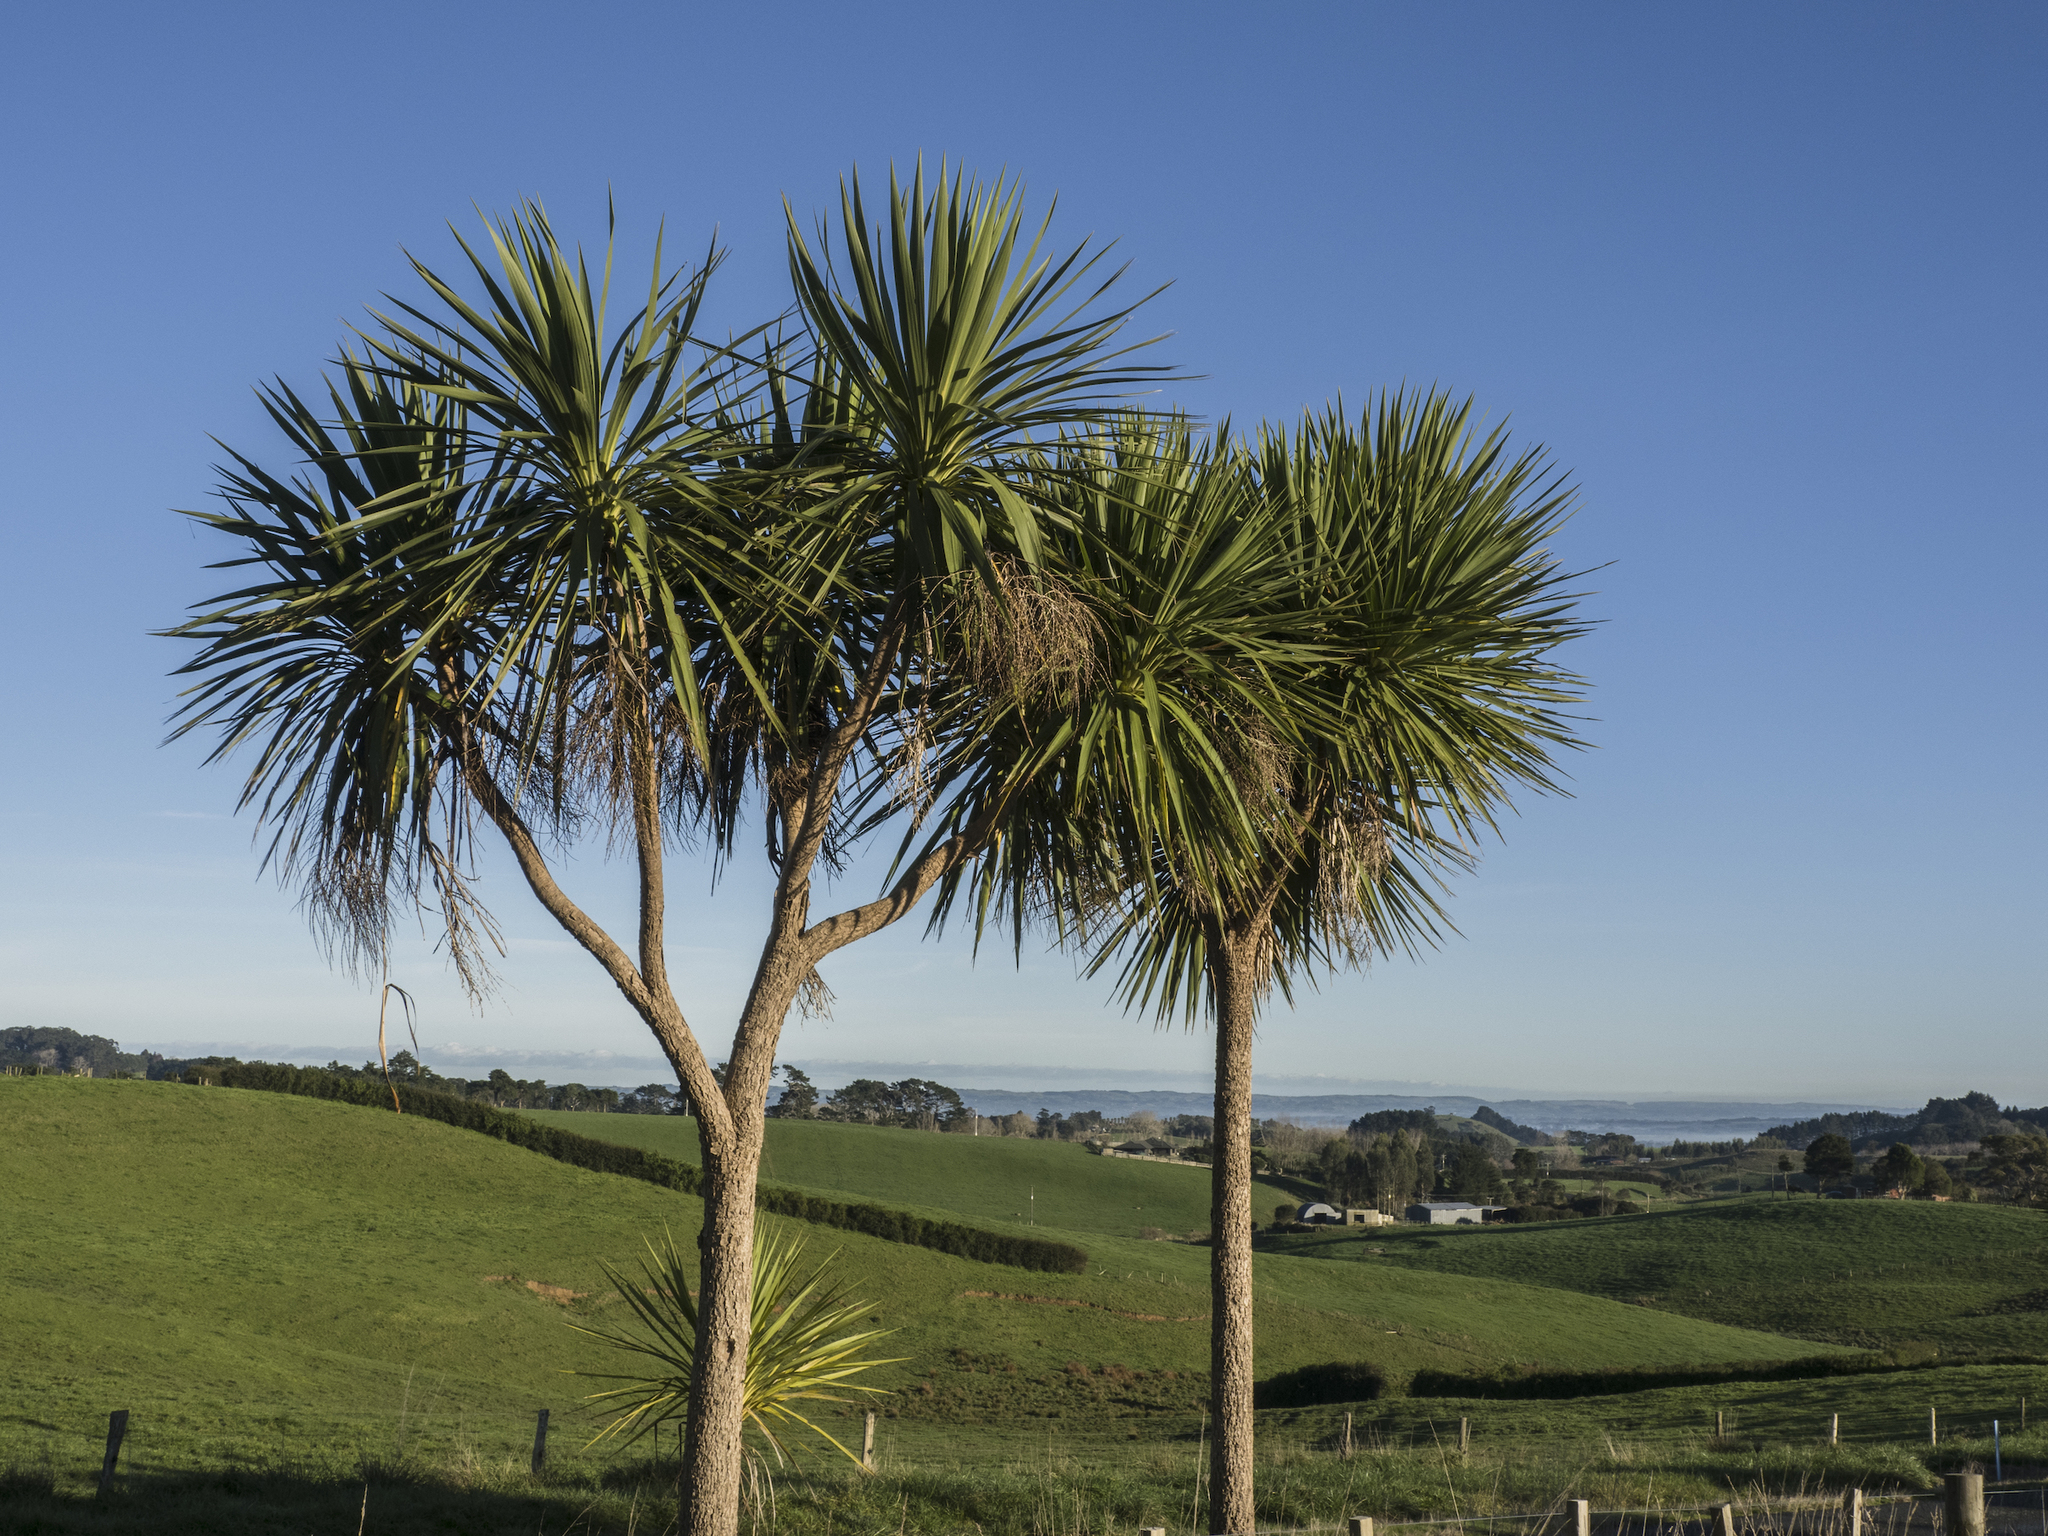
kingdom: Plantae
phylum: Tracheophyta
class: Liliopsida
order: Asparagales
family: Asparagaceae
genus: Cordyline
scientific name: Cordyline australis
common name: Cabbage-palm
